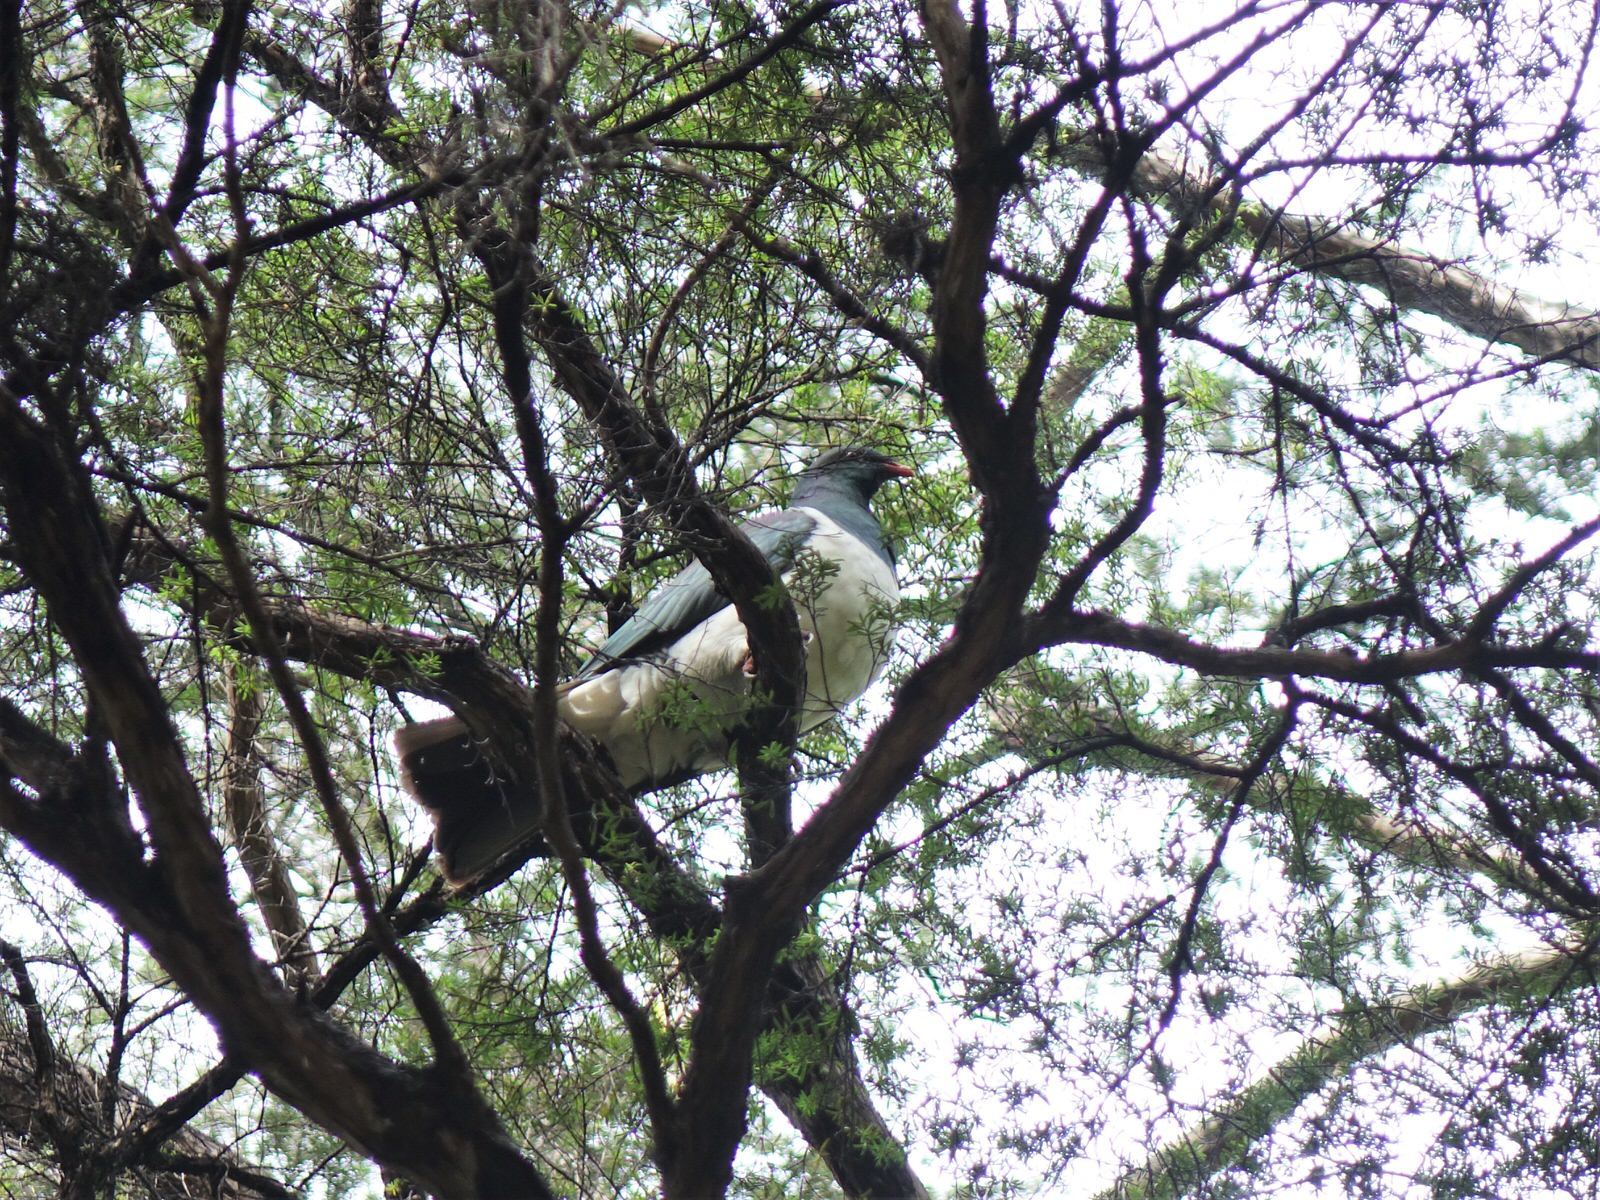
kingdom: Animalia
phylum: Chordata
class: Aves
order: Columbiformes
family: Columbidae
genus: Hemiphaga
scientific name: Hemiphaga novaeseelandiae
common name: New zealand pigeon
